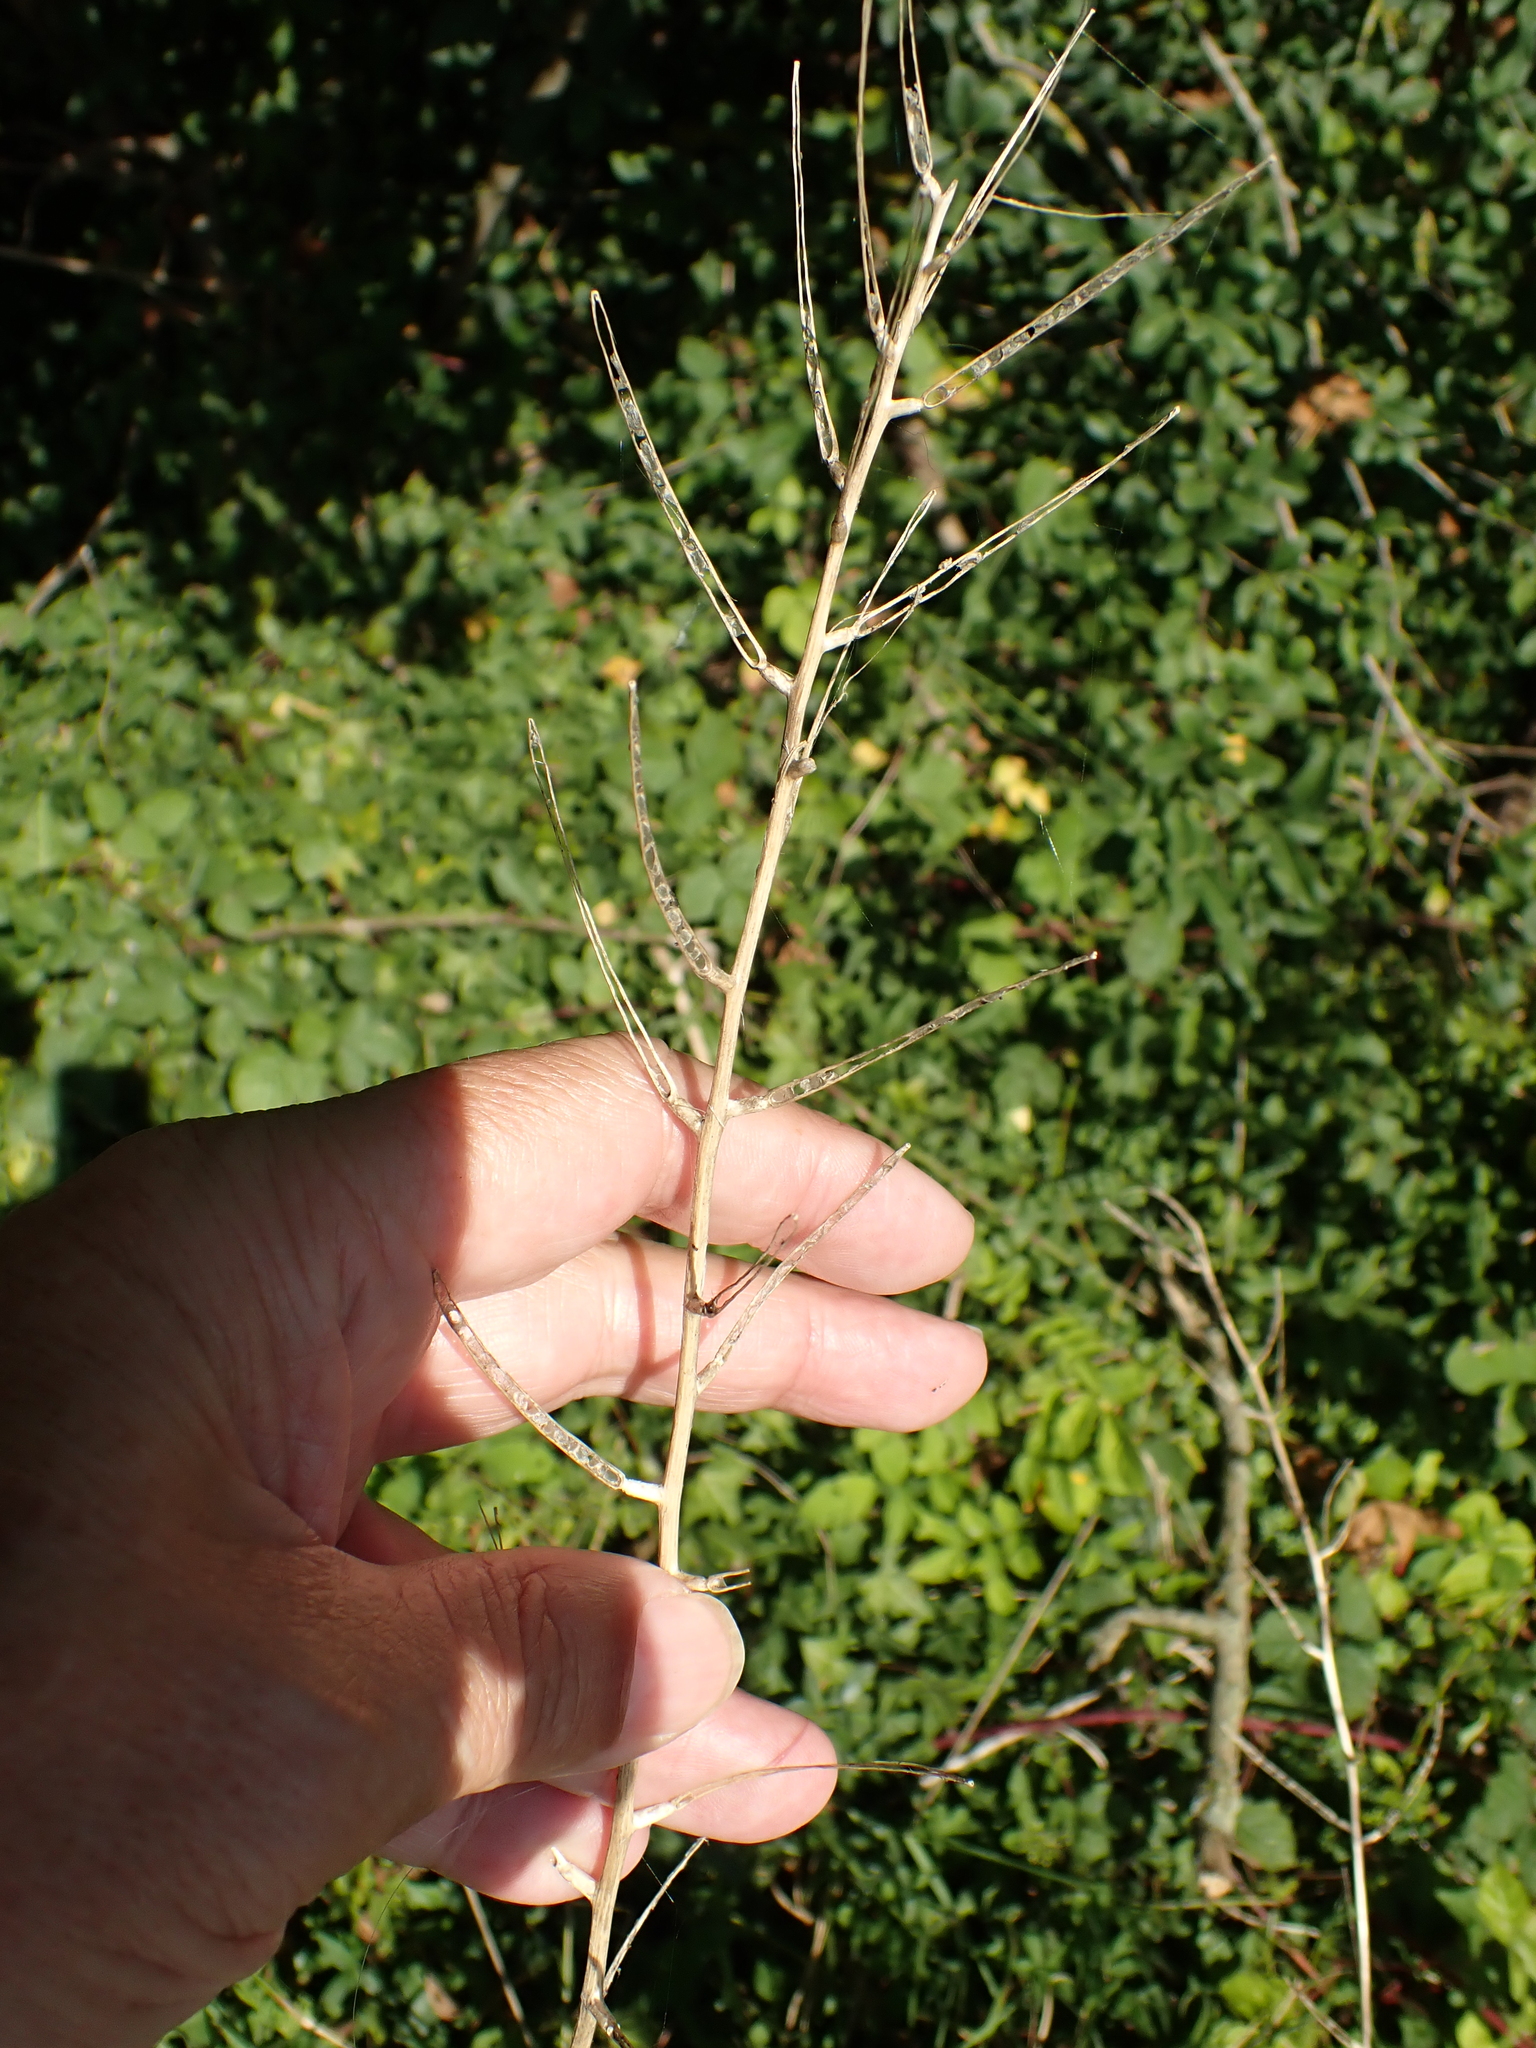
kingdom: Plantae
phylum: Tracheophyta
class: Magnoliopsida
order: Brassicales
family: Brassicaceae
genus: Alliaria
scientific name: Alliaria petiolata
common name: Garlic mustard
